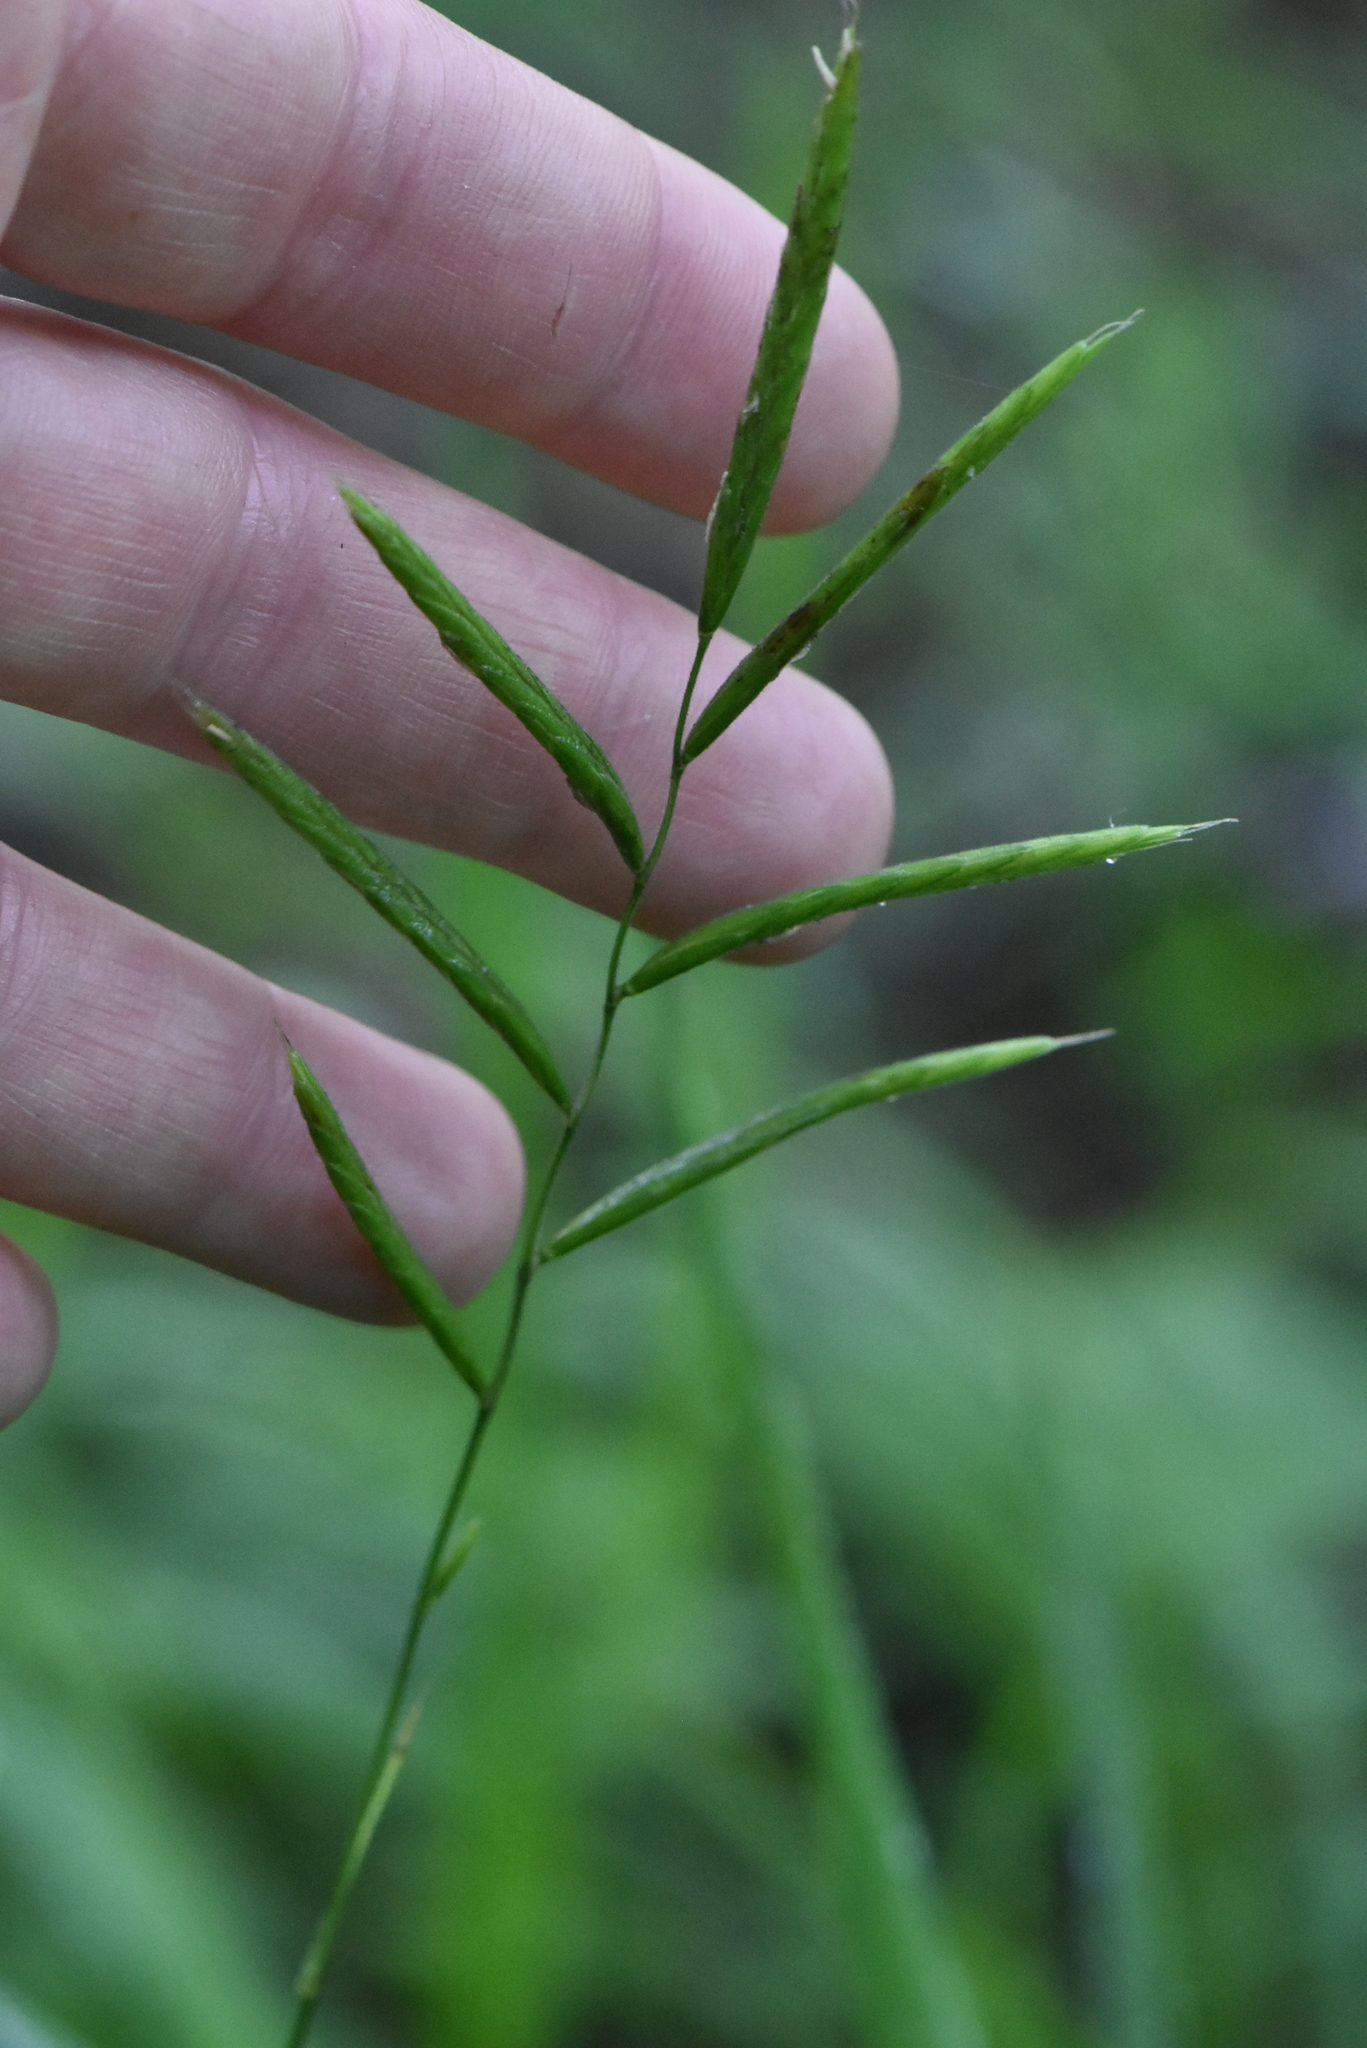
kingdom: Plantae
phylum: Tracheophyta
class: Liliopsida
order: Poales
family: Poaceae
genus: Brachypodium
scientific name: Brachypodium pinnatum
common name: Tor grass
